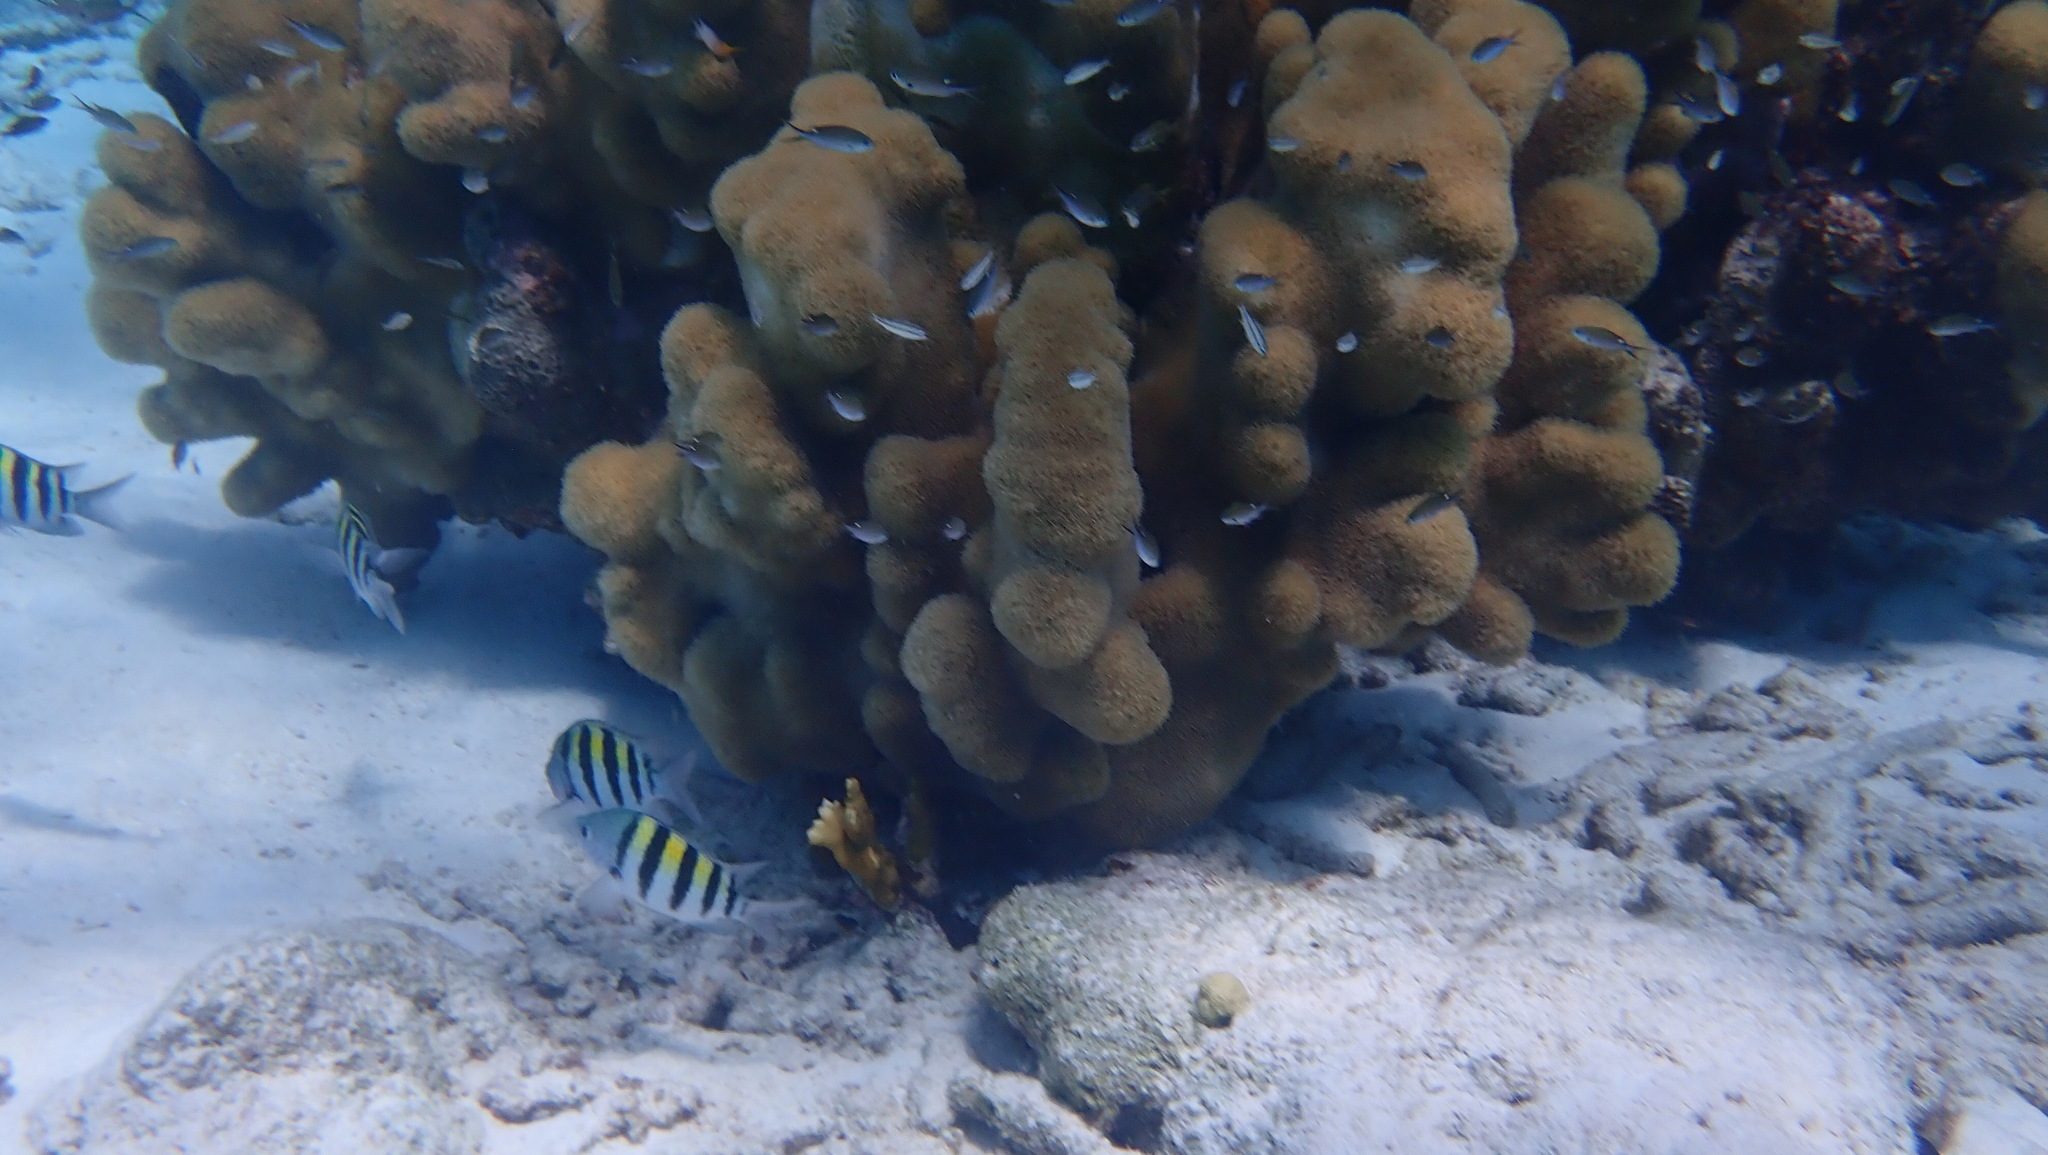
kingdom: Animalia
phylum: Chordata
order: Perciformes
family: Pomacentridae
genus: Abudefduf
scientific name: Abudefduf saxatilis
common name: Sergeant major
